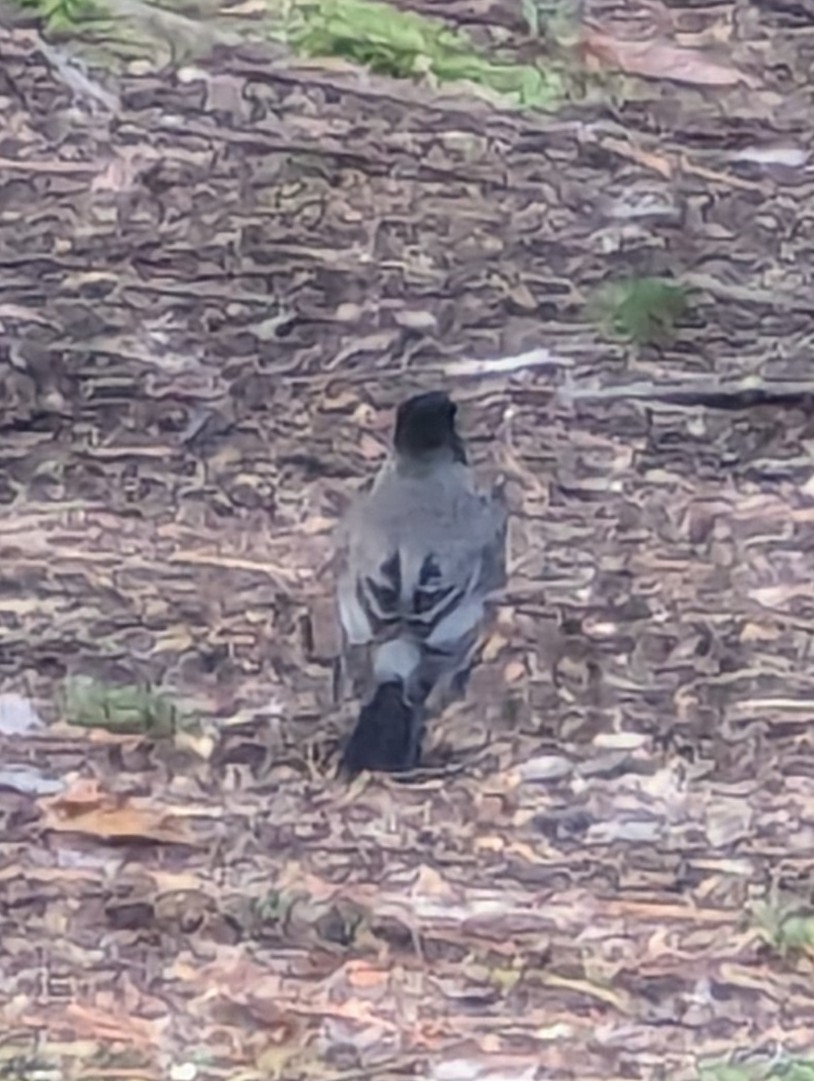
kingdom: Animalia
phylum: Chordata
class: Aves
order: Passeriformes
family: Turdidae
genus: Turdus
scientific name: Turdus migratorius
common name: American robin
